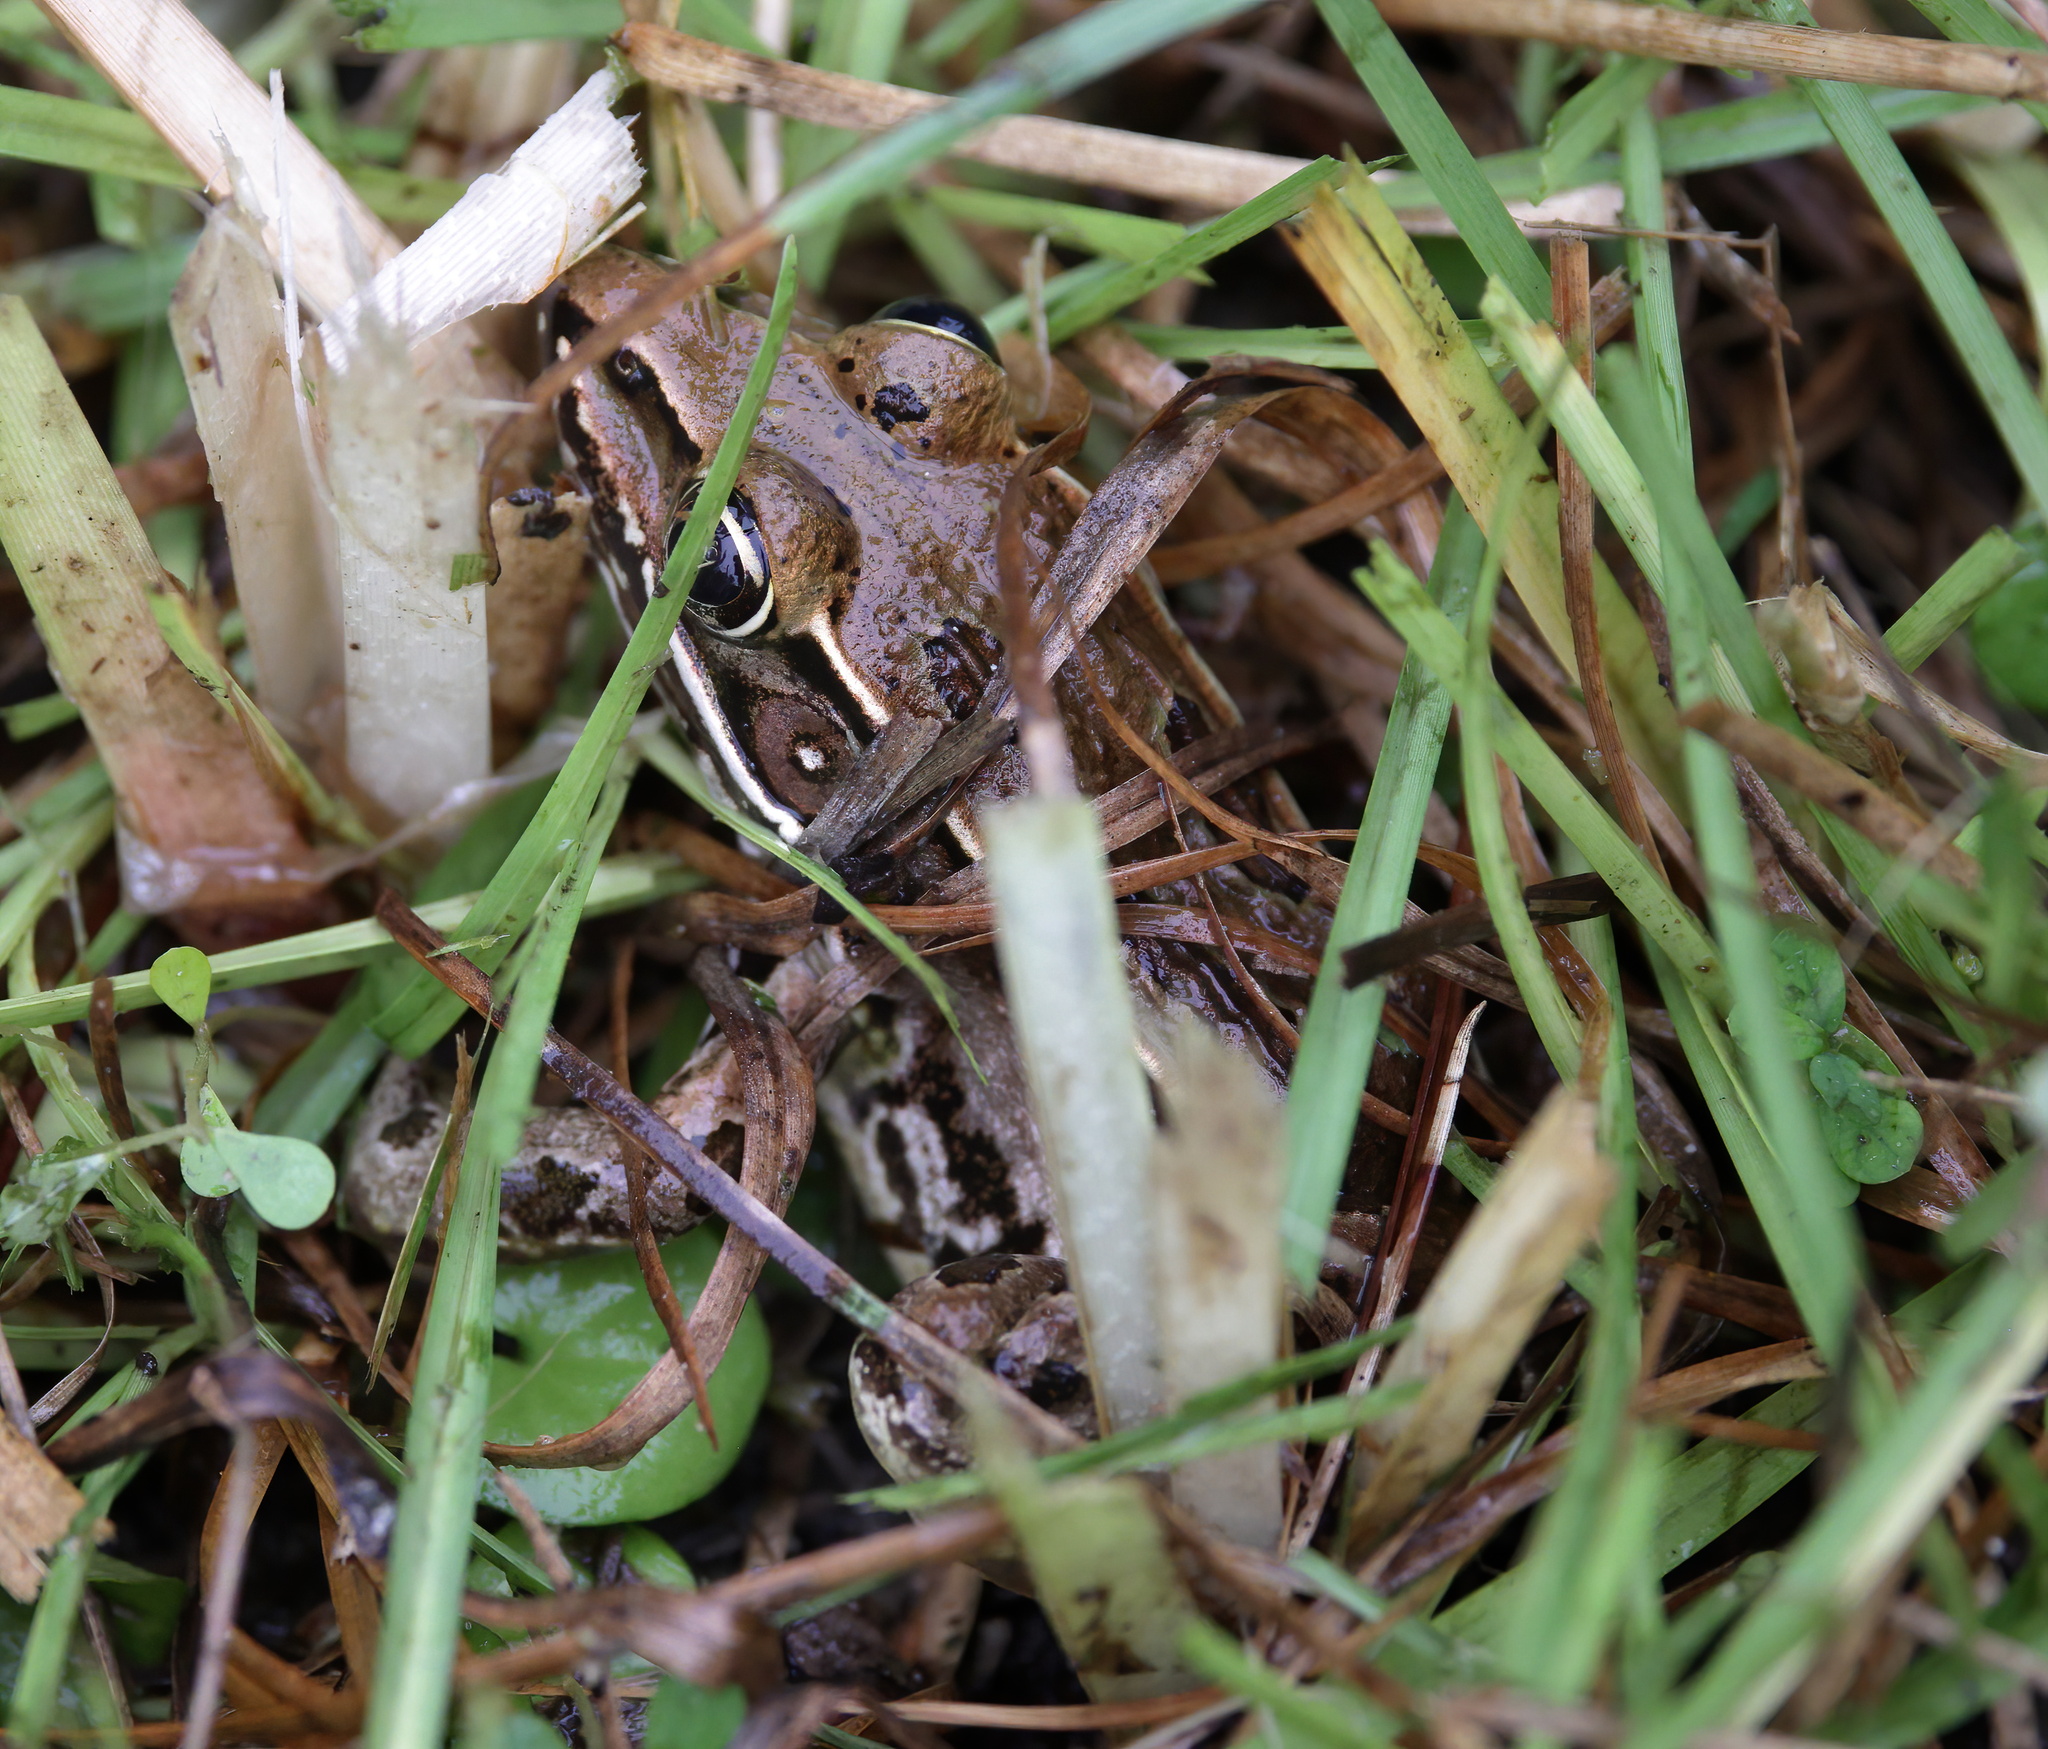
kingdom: Animalia
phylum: Chordata
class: Amphibia
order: Anura
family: Ranidae
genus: Lithobates
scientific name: Lithobates sphenocephalus
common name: Southern leopard frog
